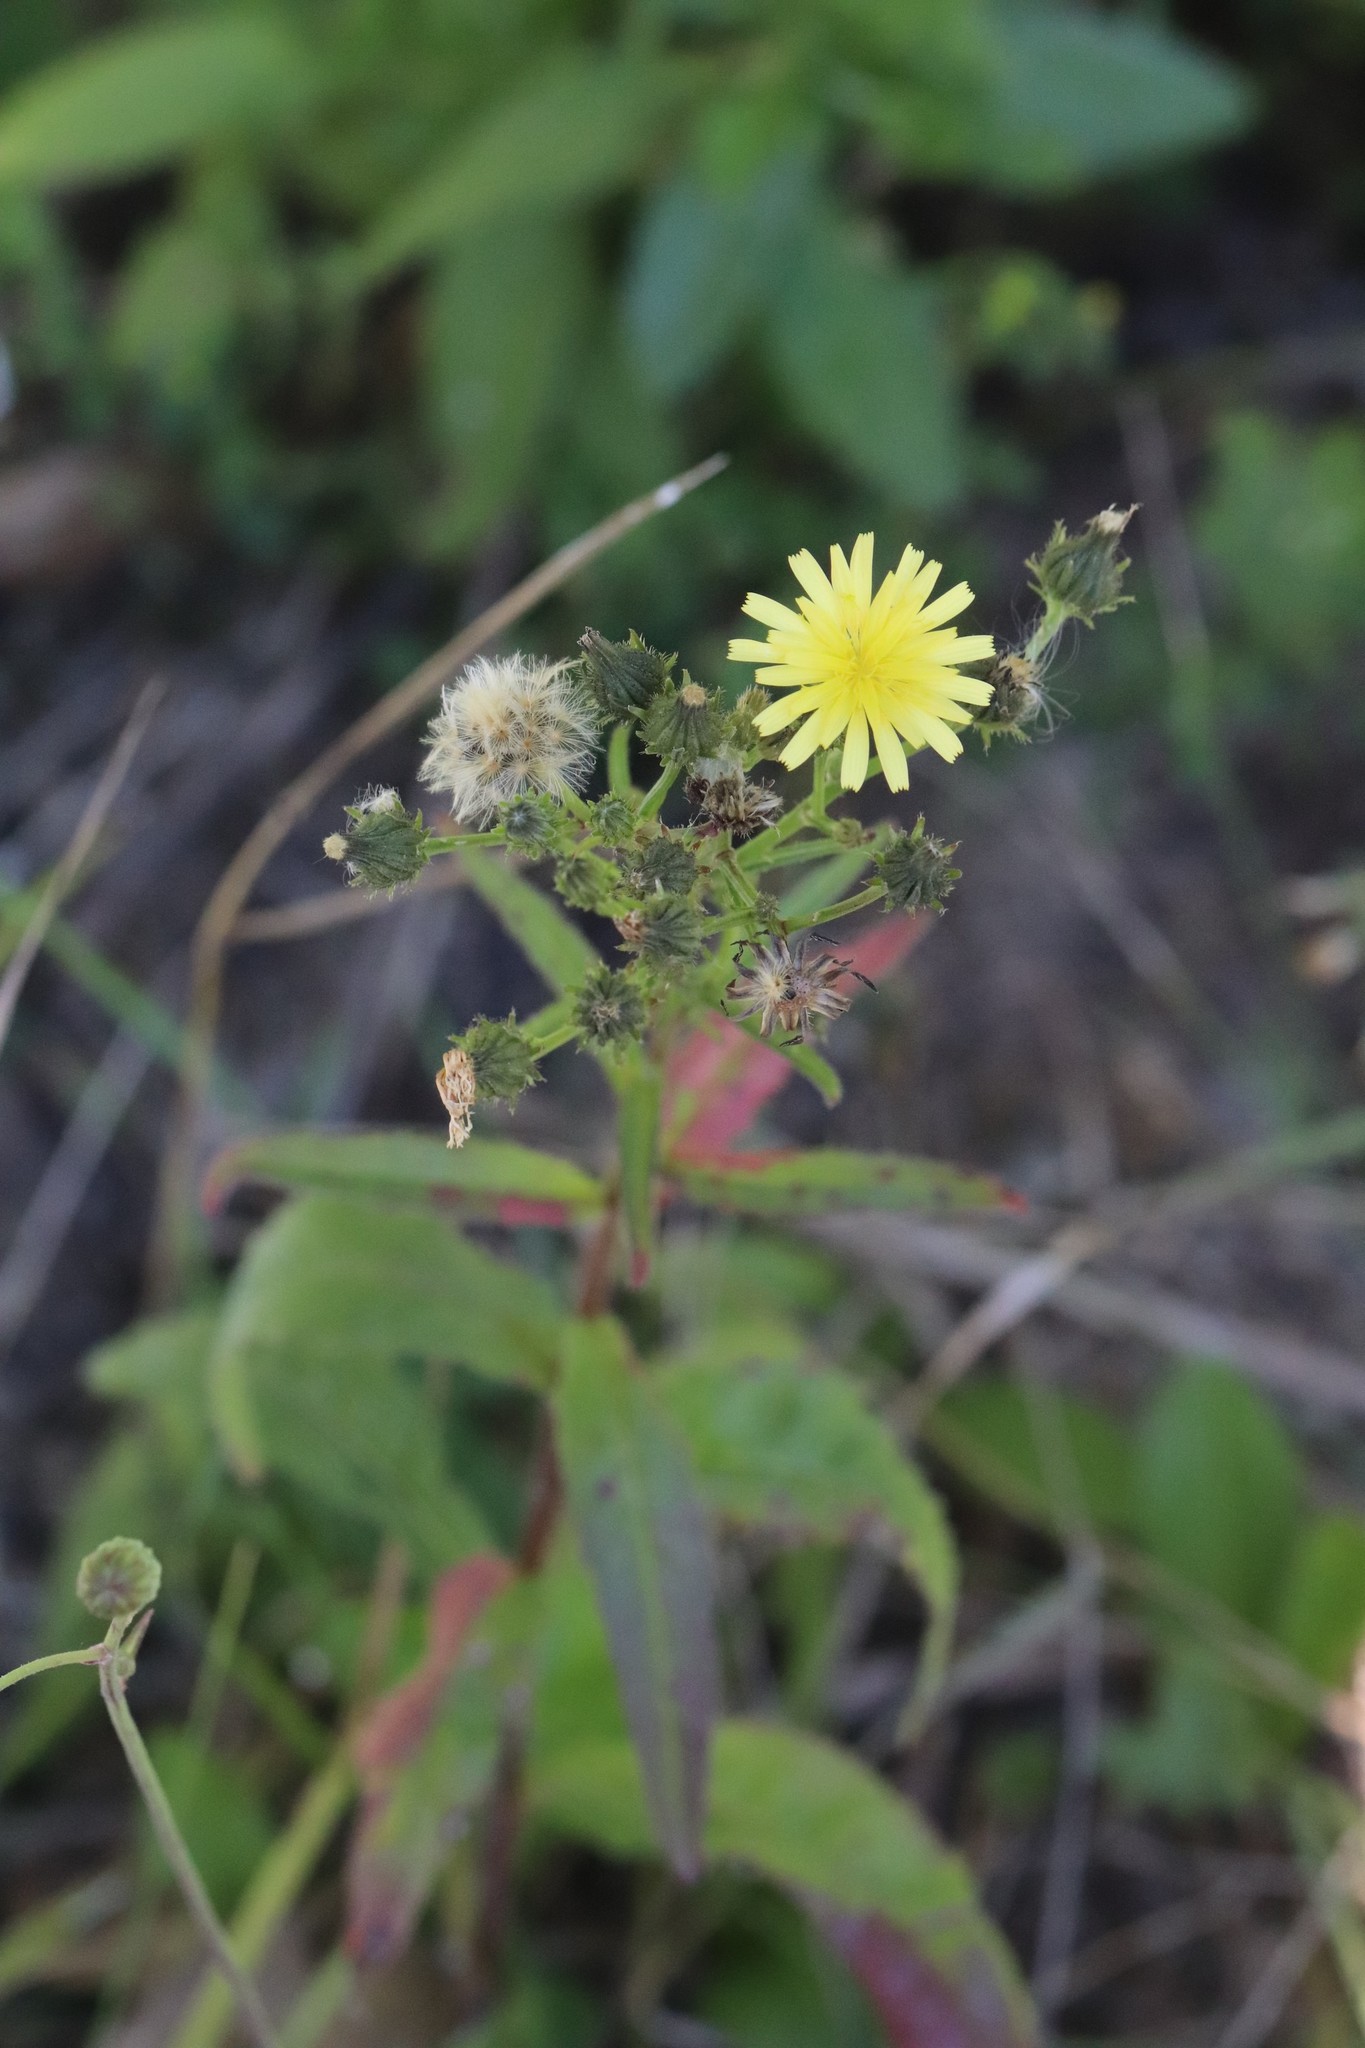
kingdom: Plantae
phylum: Tracheophyta
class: Magnoliopsida
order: Asterales
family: Asteraceae
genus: Picris
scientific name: Picris davurica
